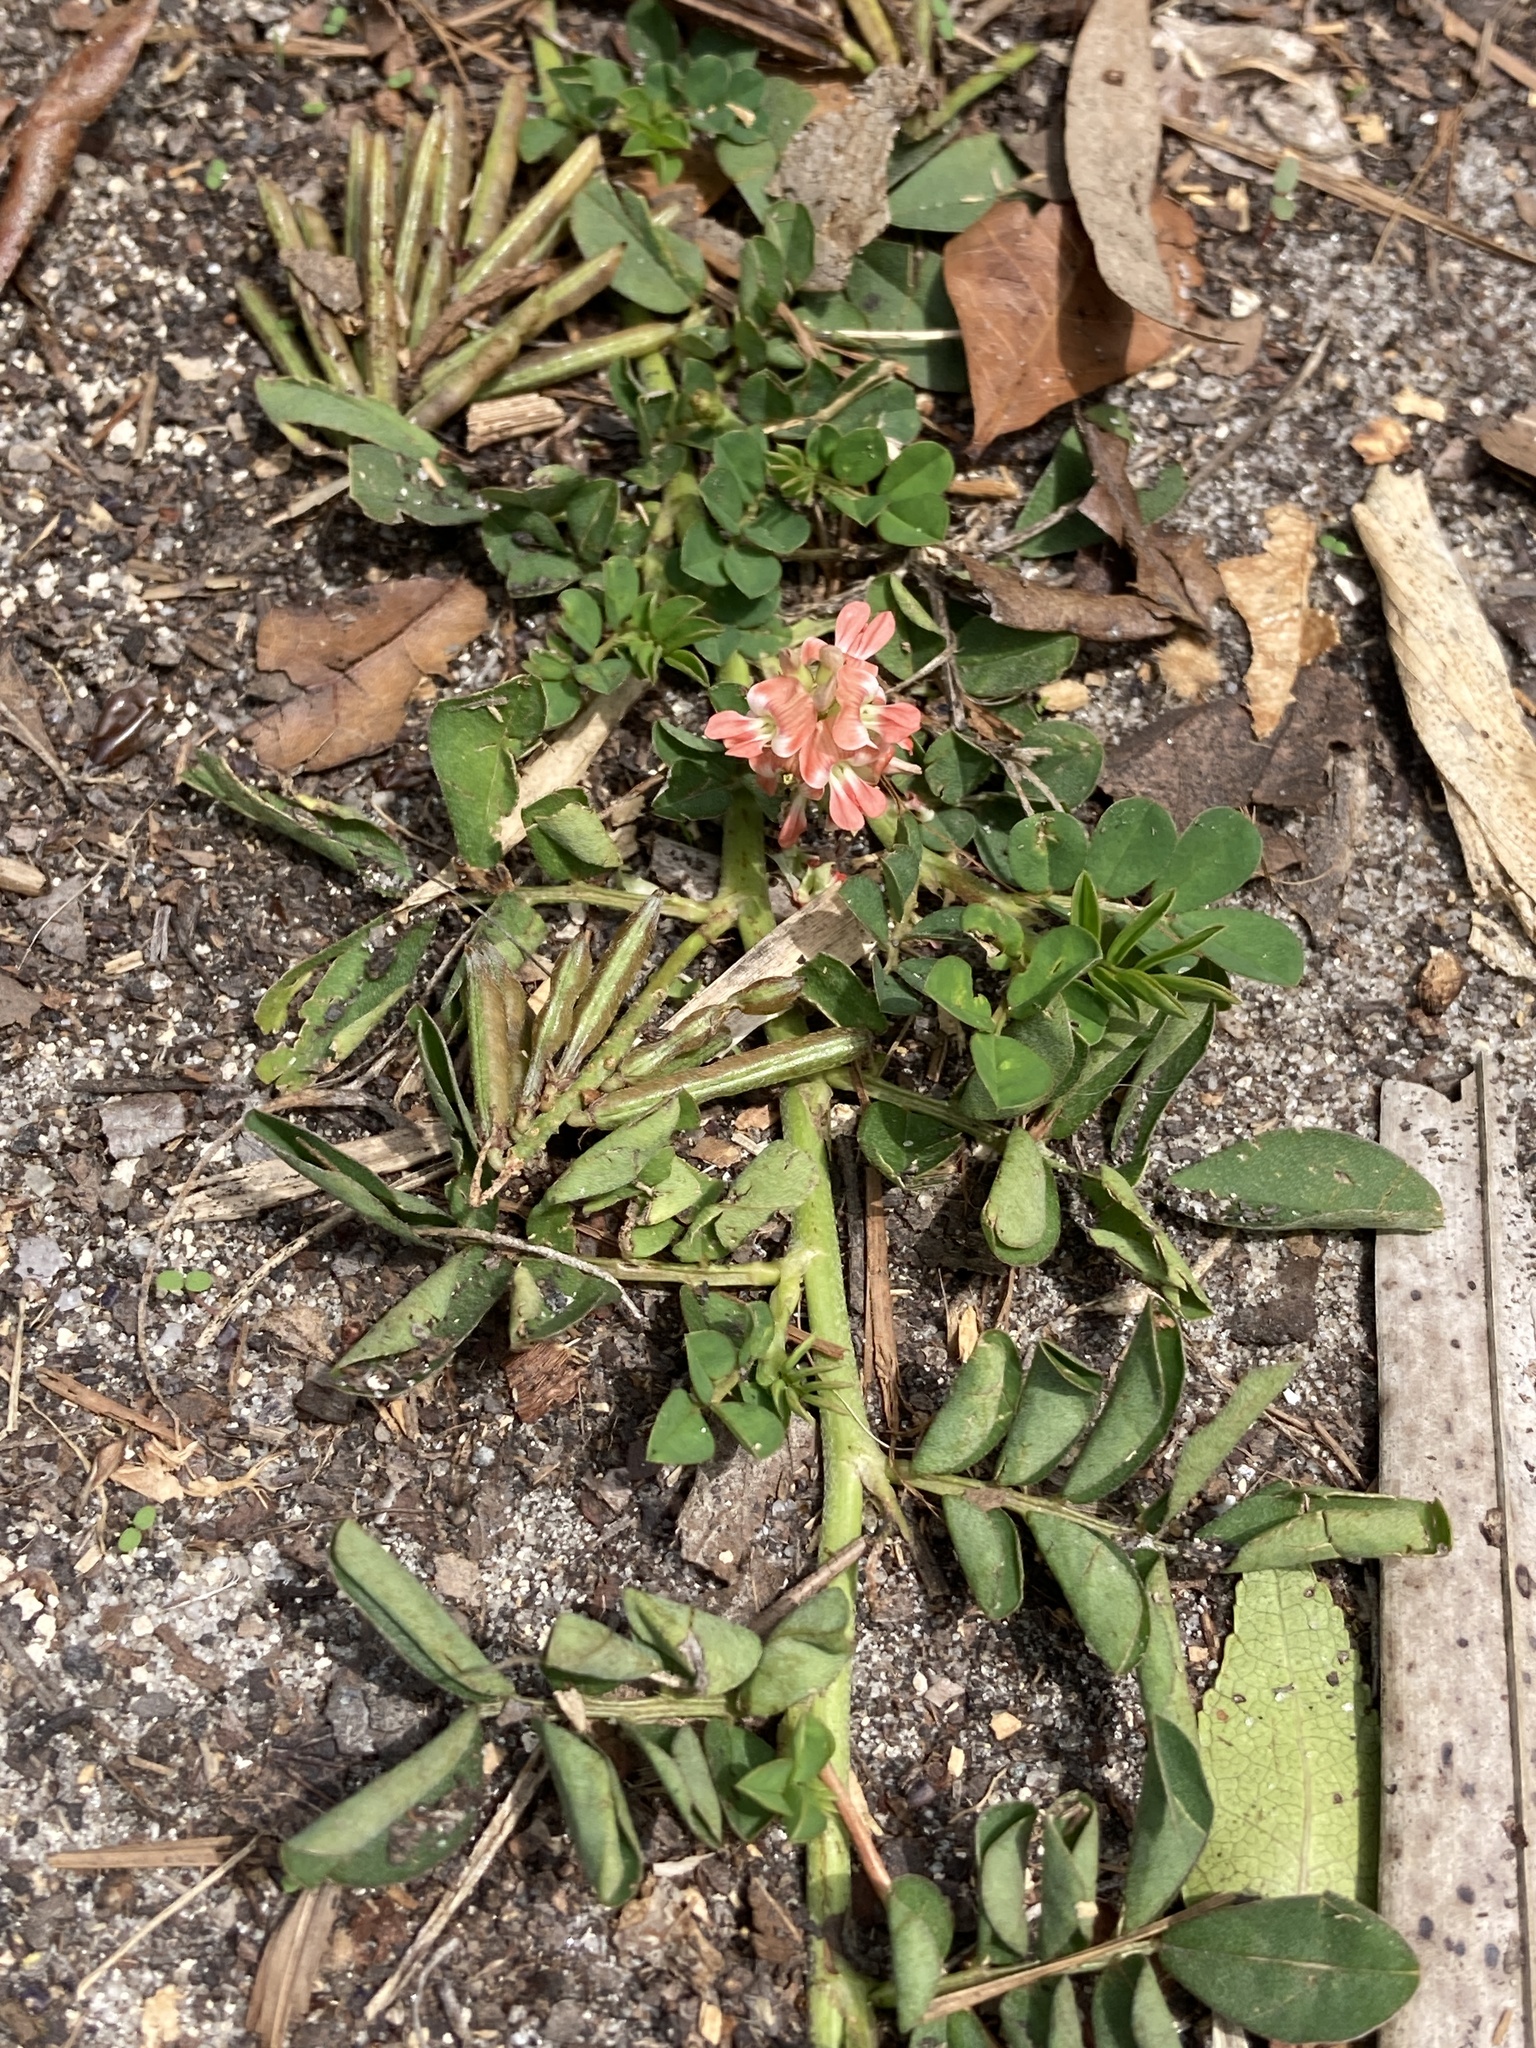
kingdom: Plantae
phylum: Tracheophyta
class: Magnoliopsida
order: Fabales
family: Fabaceae
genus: Indigofera
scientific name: Indigofera spicata
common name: Creeping indigo
